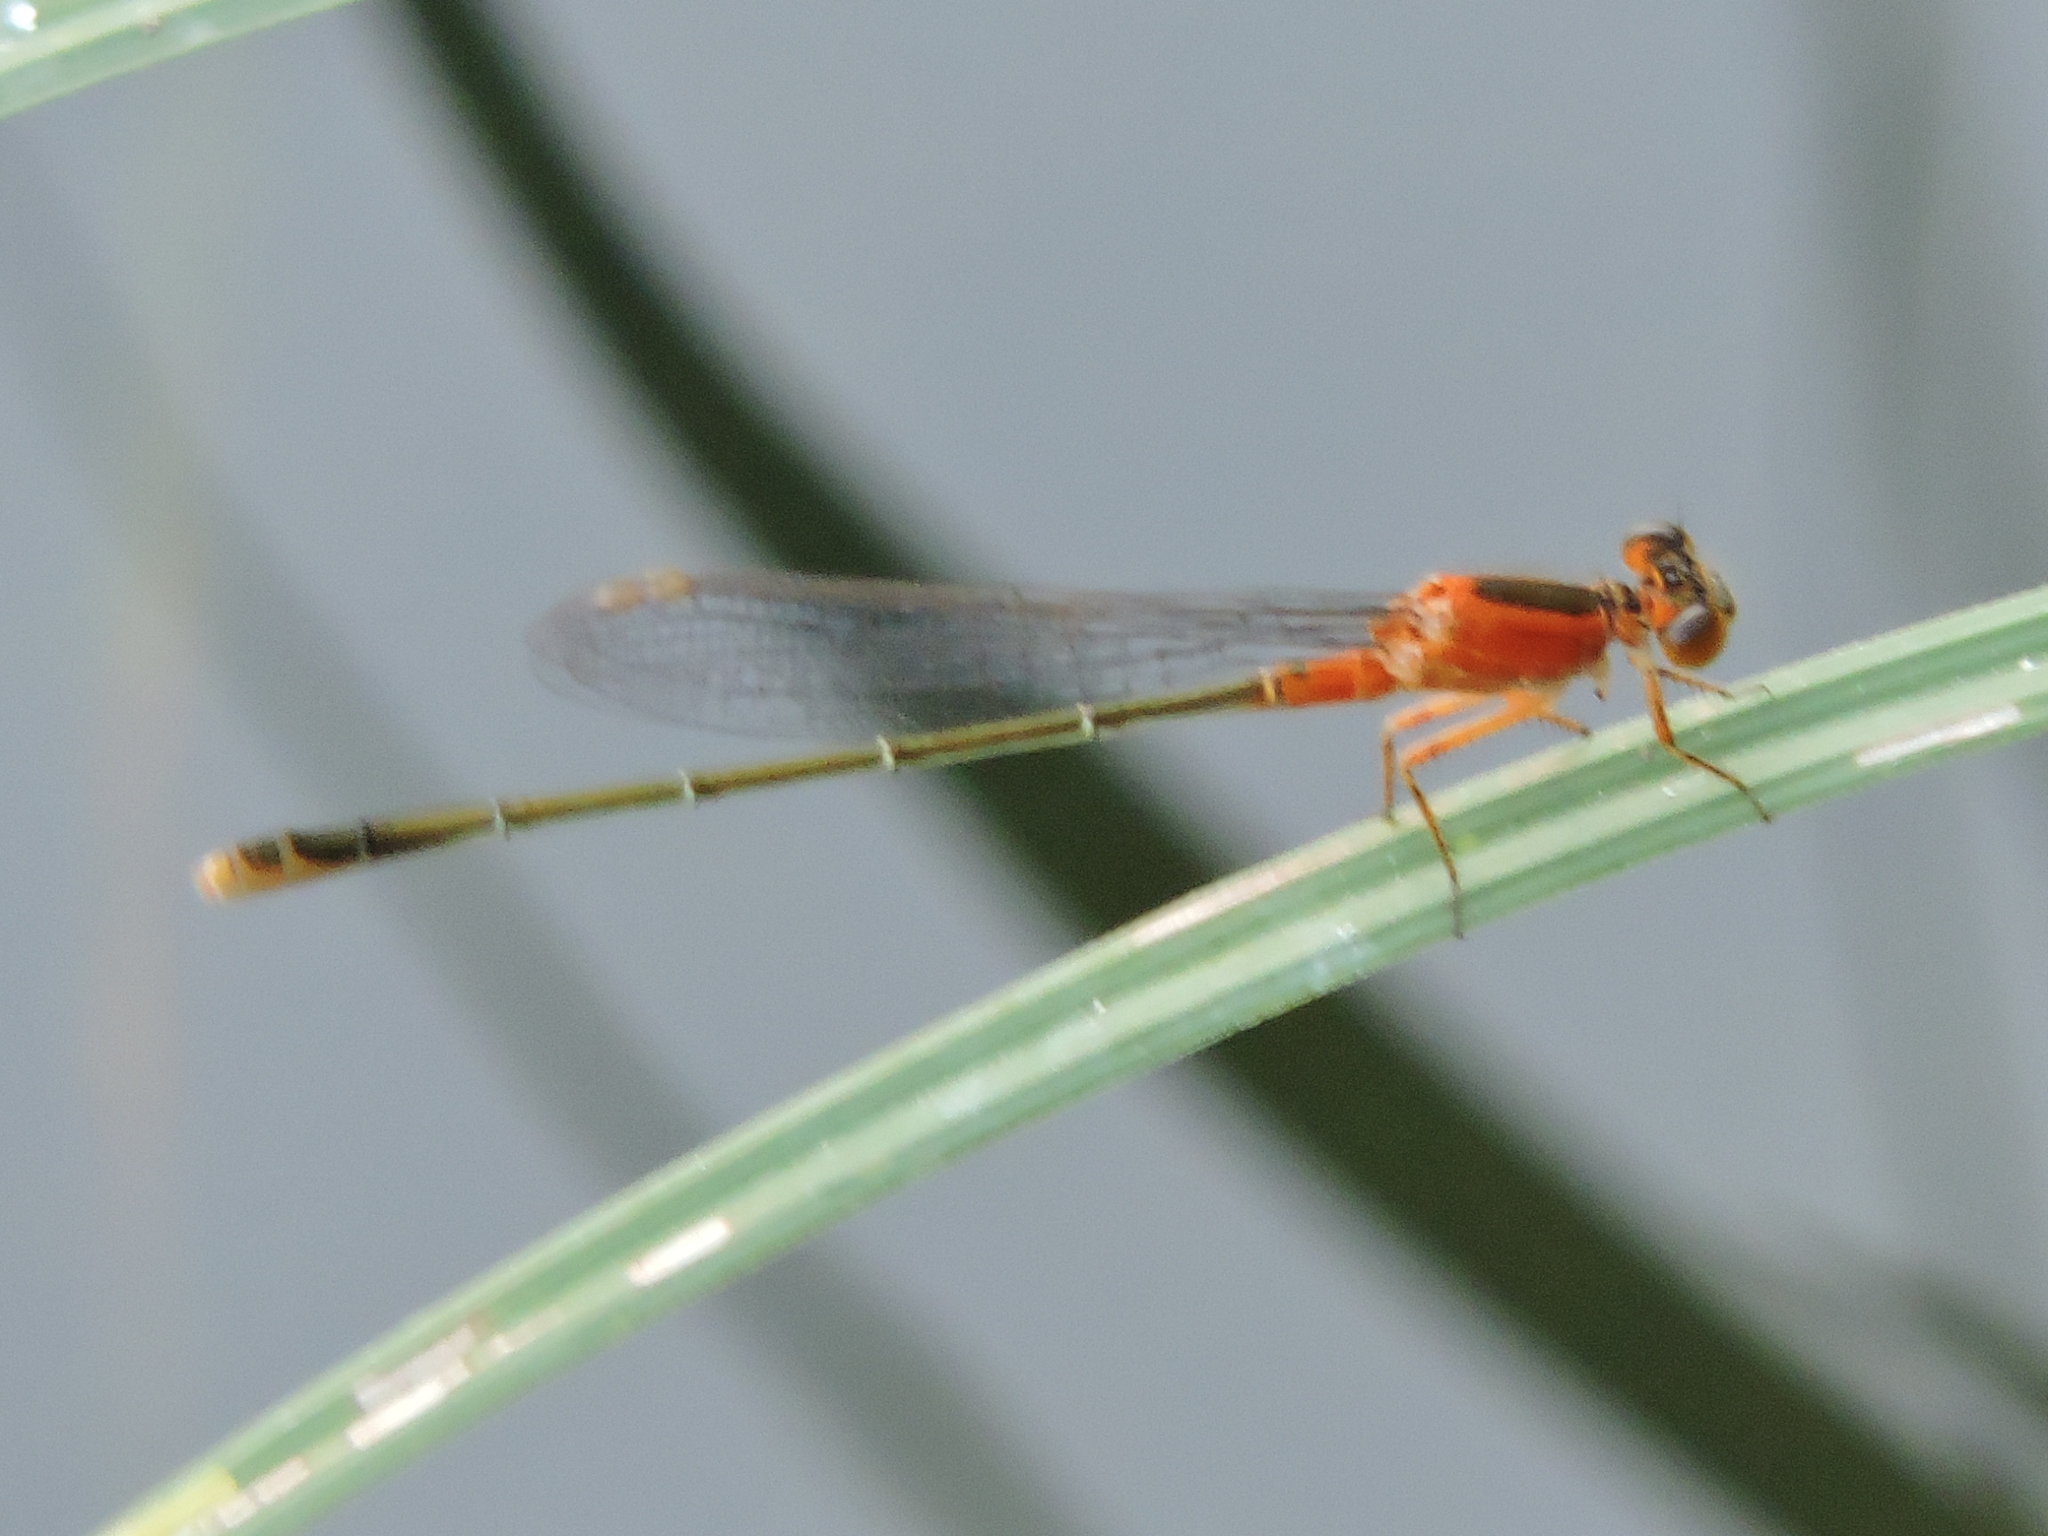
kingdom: Animalia
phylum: Arthropoda
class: Insecta
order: Odonata
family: Coenagrionidae
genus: Ischnura
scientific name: Ischnura ramburii
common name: Rambur's forktail
